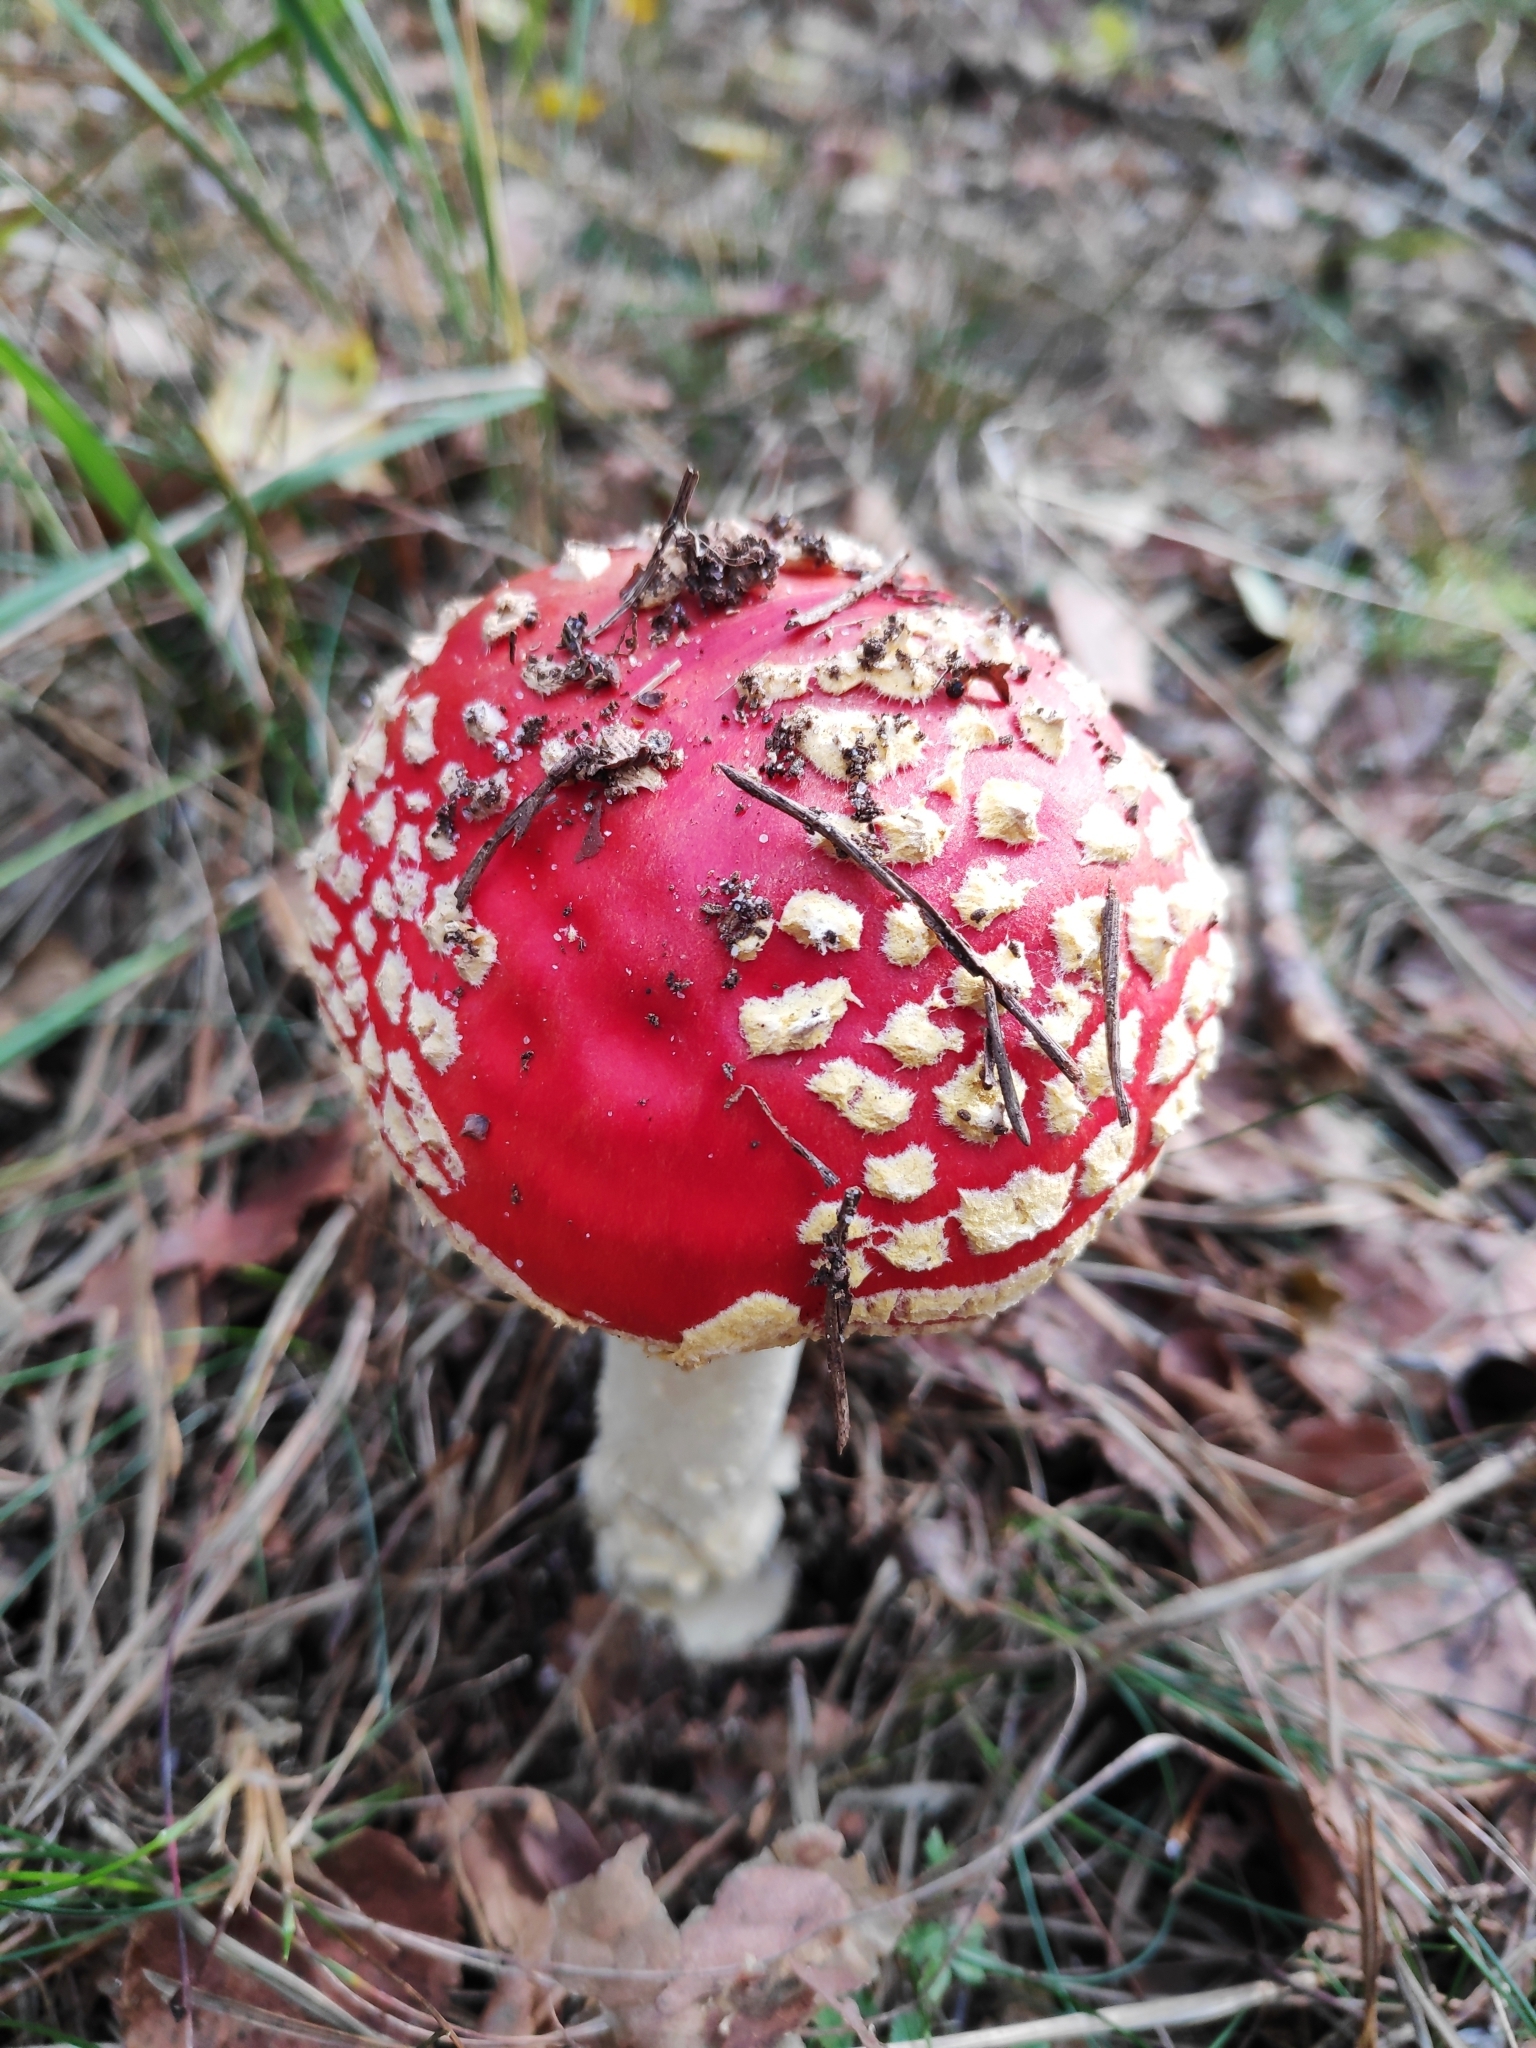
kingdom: Fungi
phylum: Basidiomycota
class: Agaricomycetes
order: Agaricales
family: Amanitaceae
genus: Amanita
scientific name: Amanita muscaria
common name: Fly agaric
